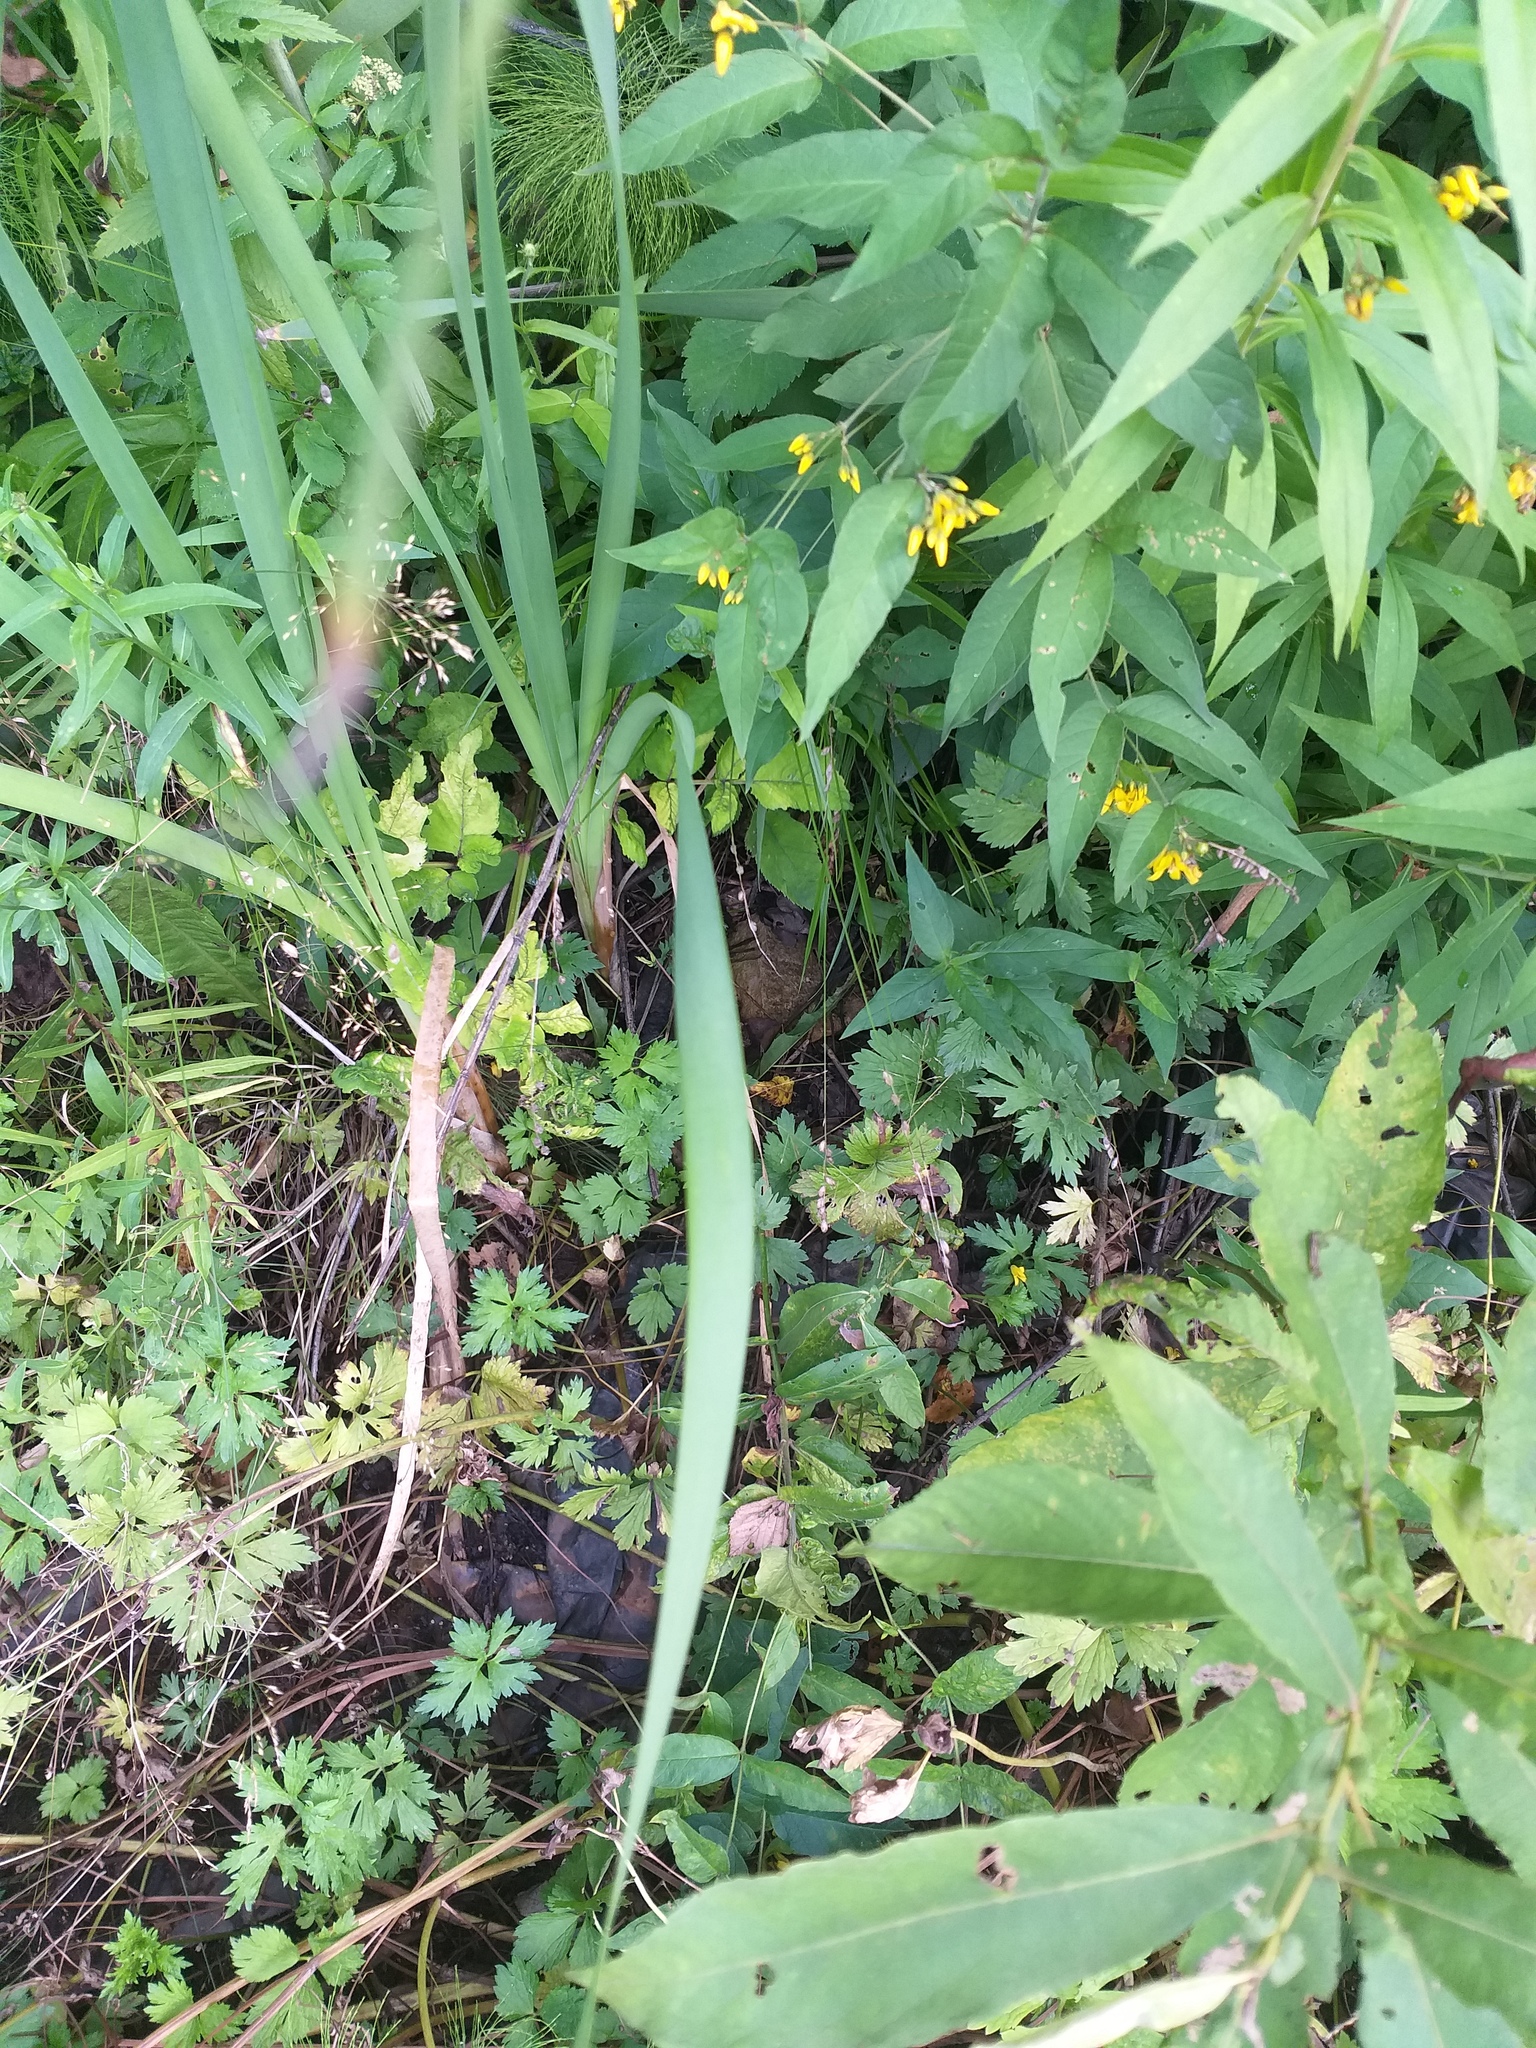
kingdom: Plantae
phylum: Tracheophyta
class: Liliopsida
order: Poales
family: Poaceae
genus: Melica
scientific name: Melica nutans
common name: Mountain melick
